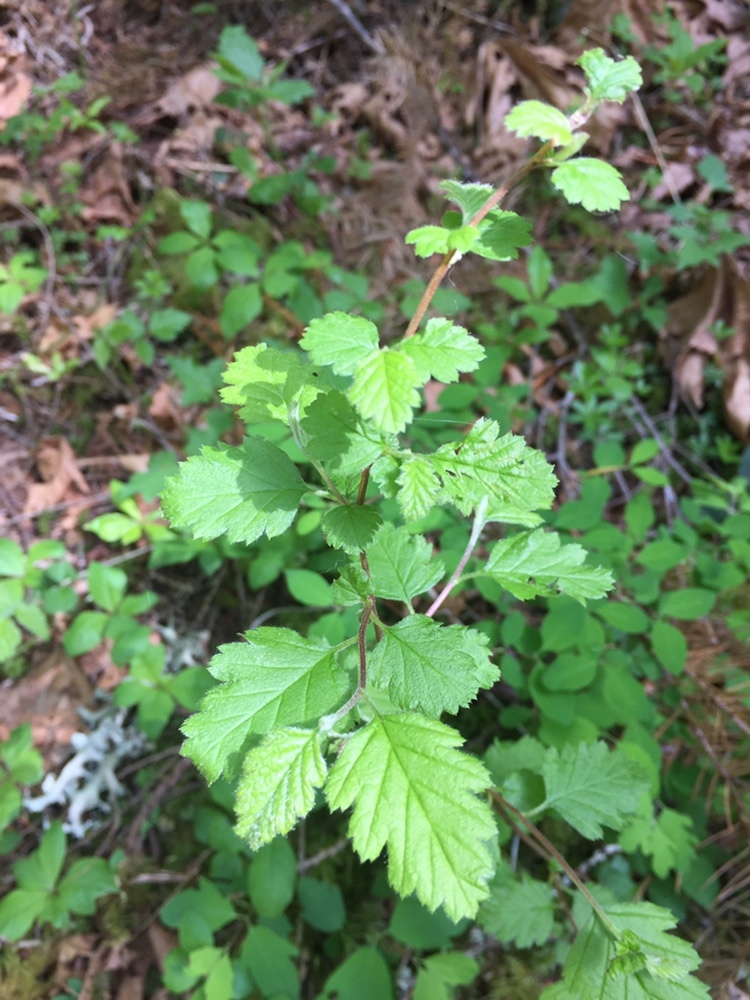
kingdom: Plantae
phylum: Tracheophyta
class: Magnoliopsida
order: Rosales
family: Rosaceae
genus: Holodiscus
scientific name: Holodiscus discolor
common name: Oceanspray
